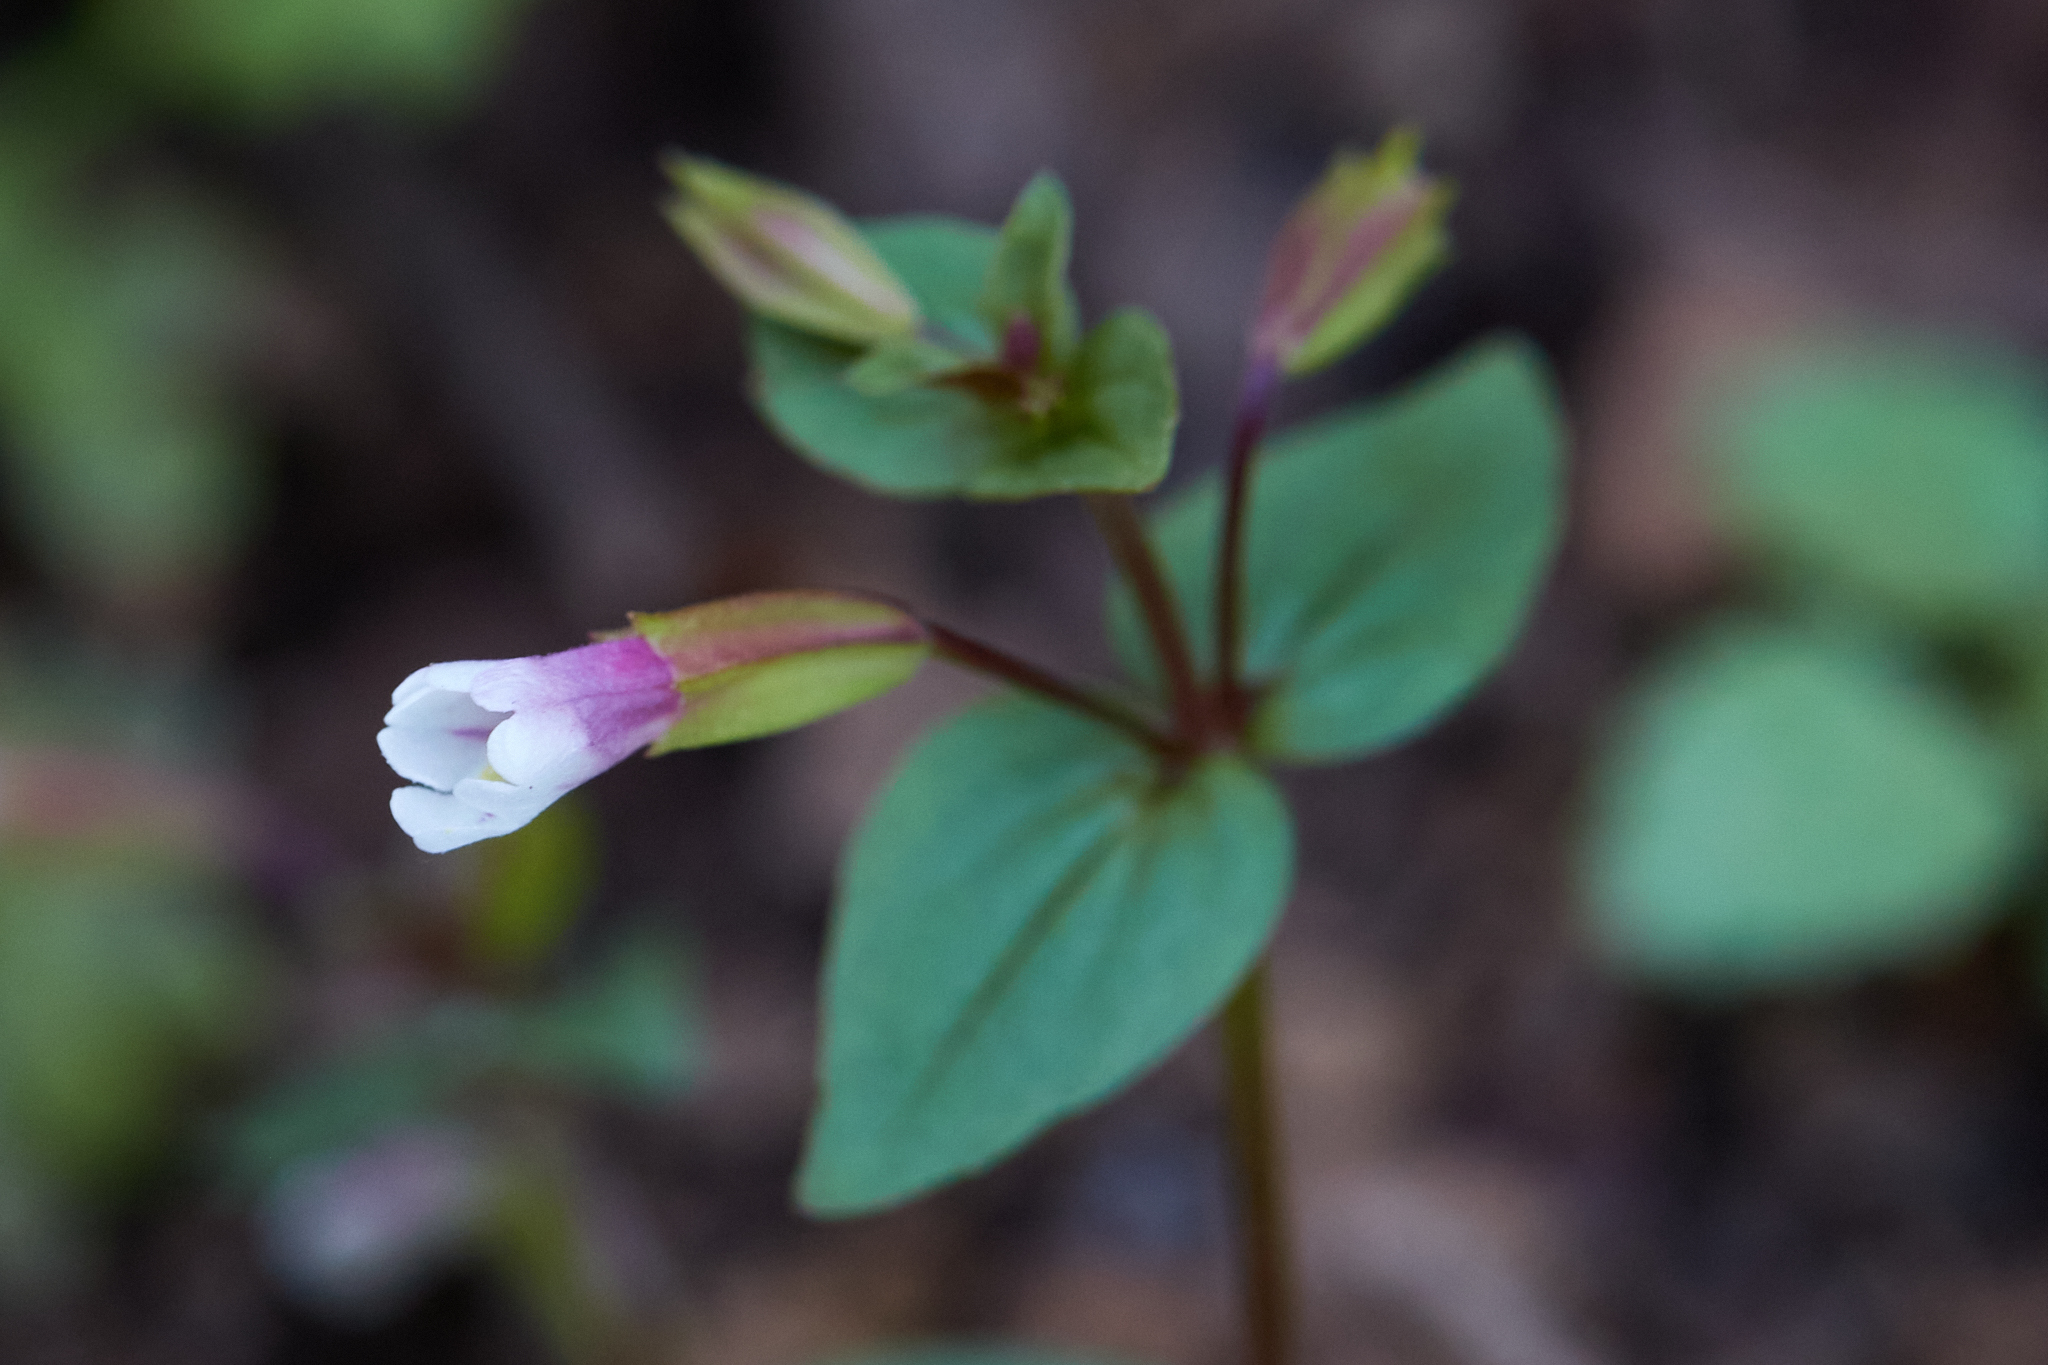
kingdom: Plantae
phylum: Tracheophyta
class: Magnoliopsida
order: Lamiales
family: Phrymaceae
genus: Erythranthe
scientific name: Erythranthe inconspicua
